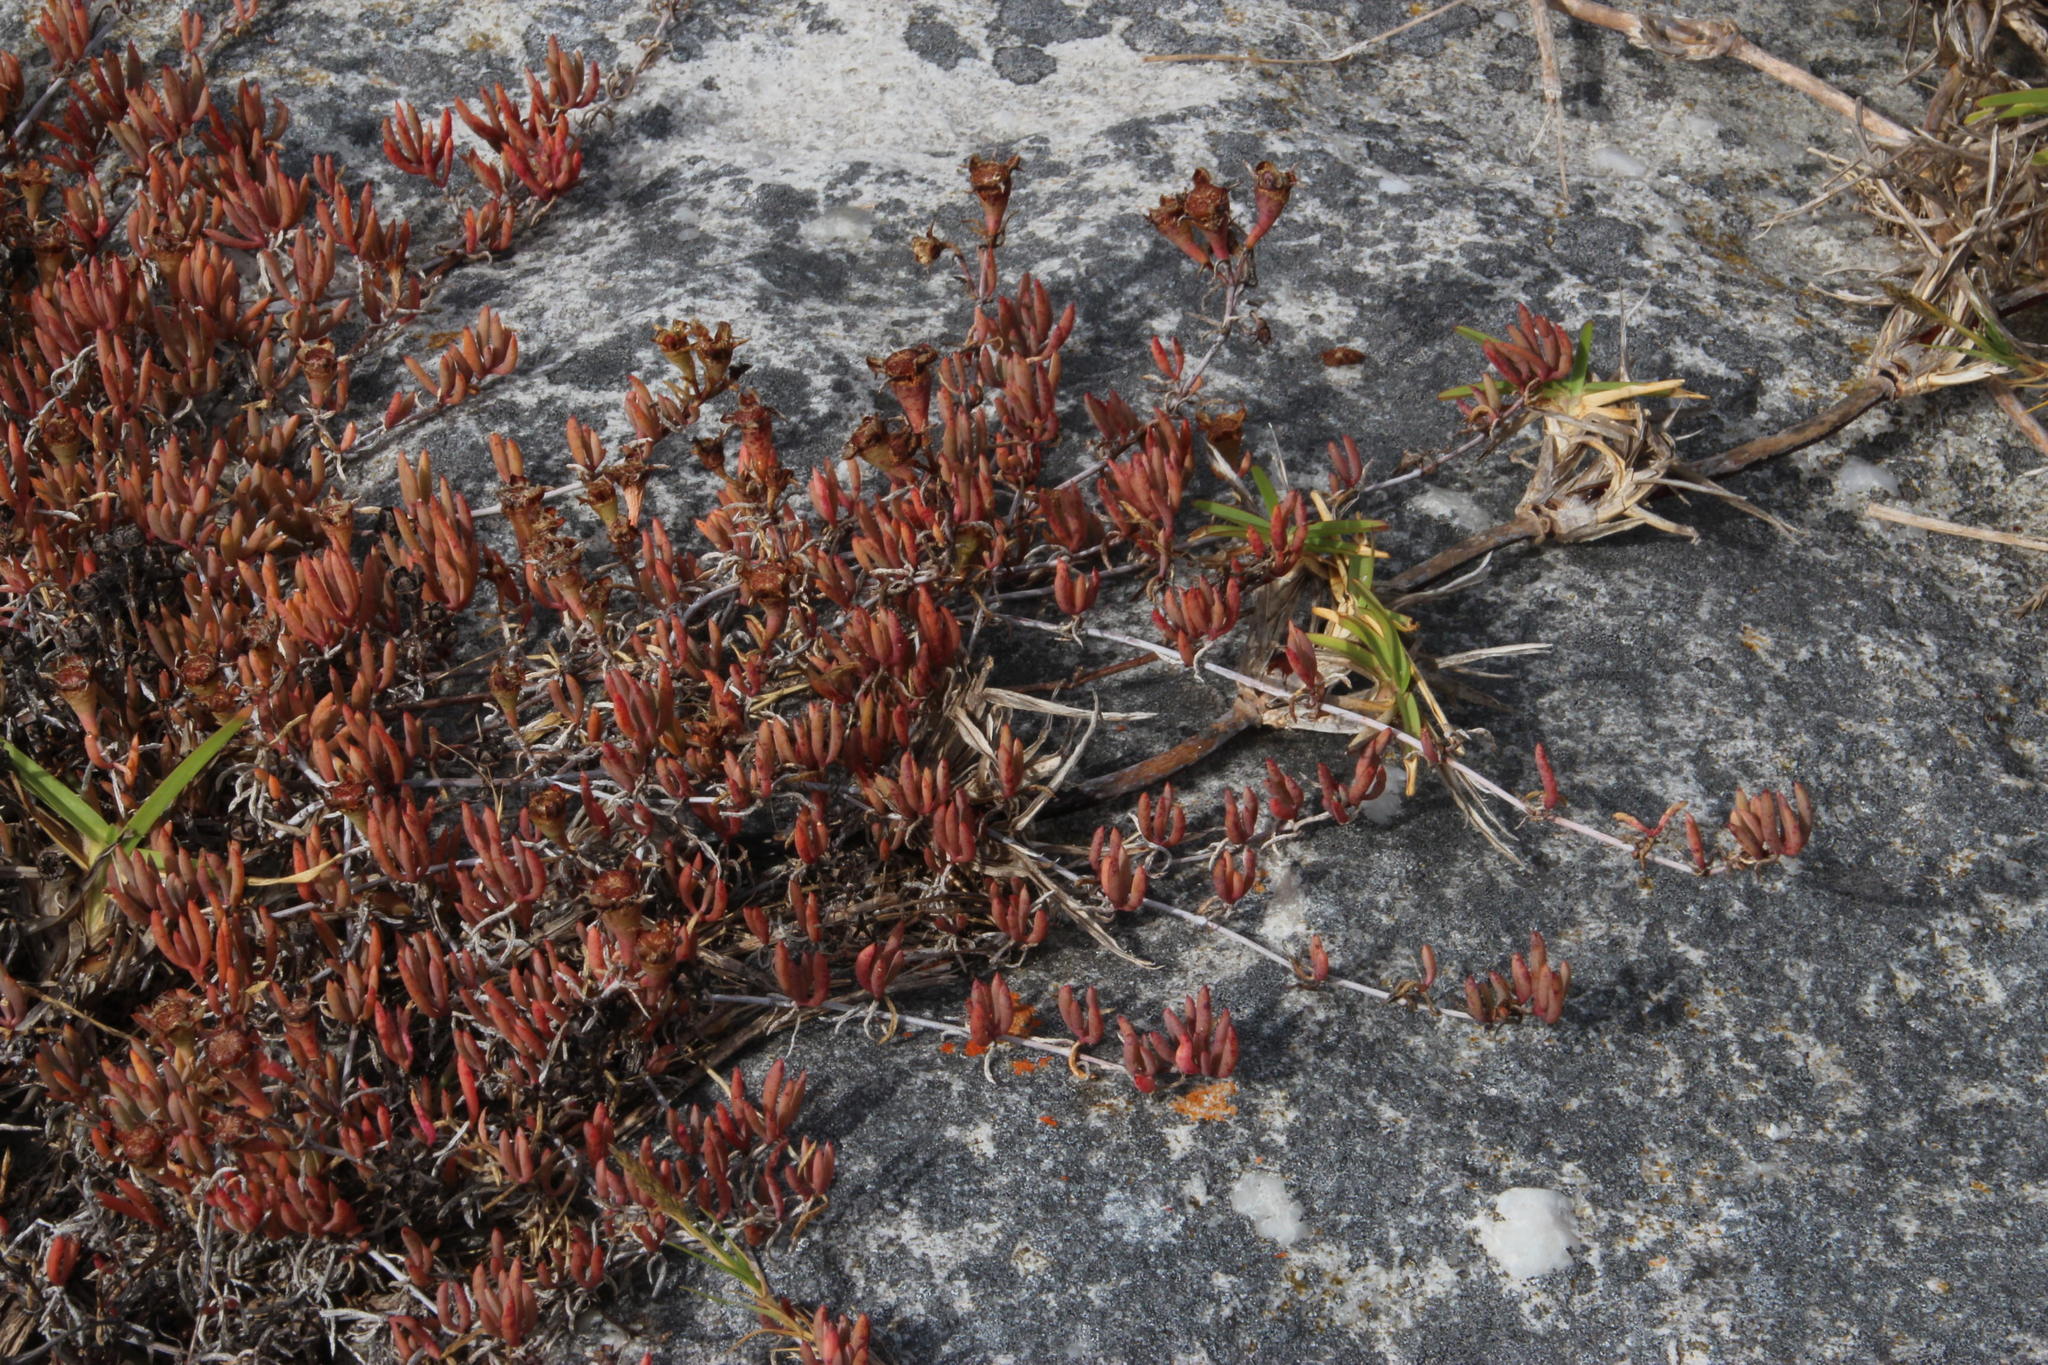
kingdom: Plantae
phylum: Tracheophyta
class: Magnoliopsida
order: Caryophyllales
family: Aizoaceae
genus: Lampranthus
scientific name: Lampranthus stenus
